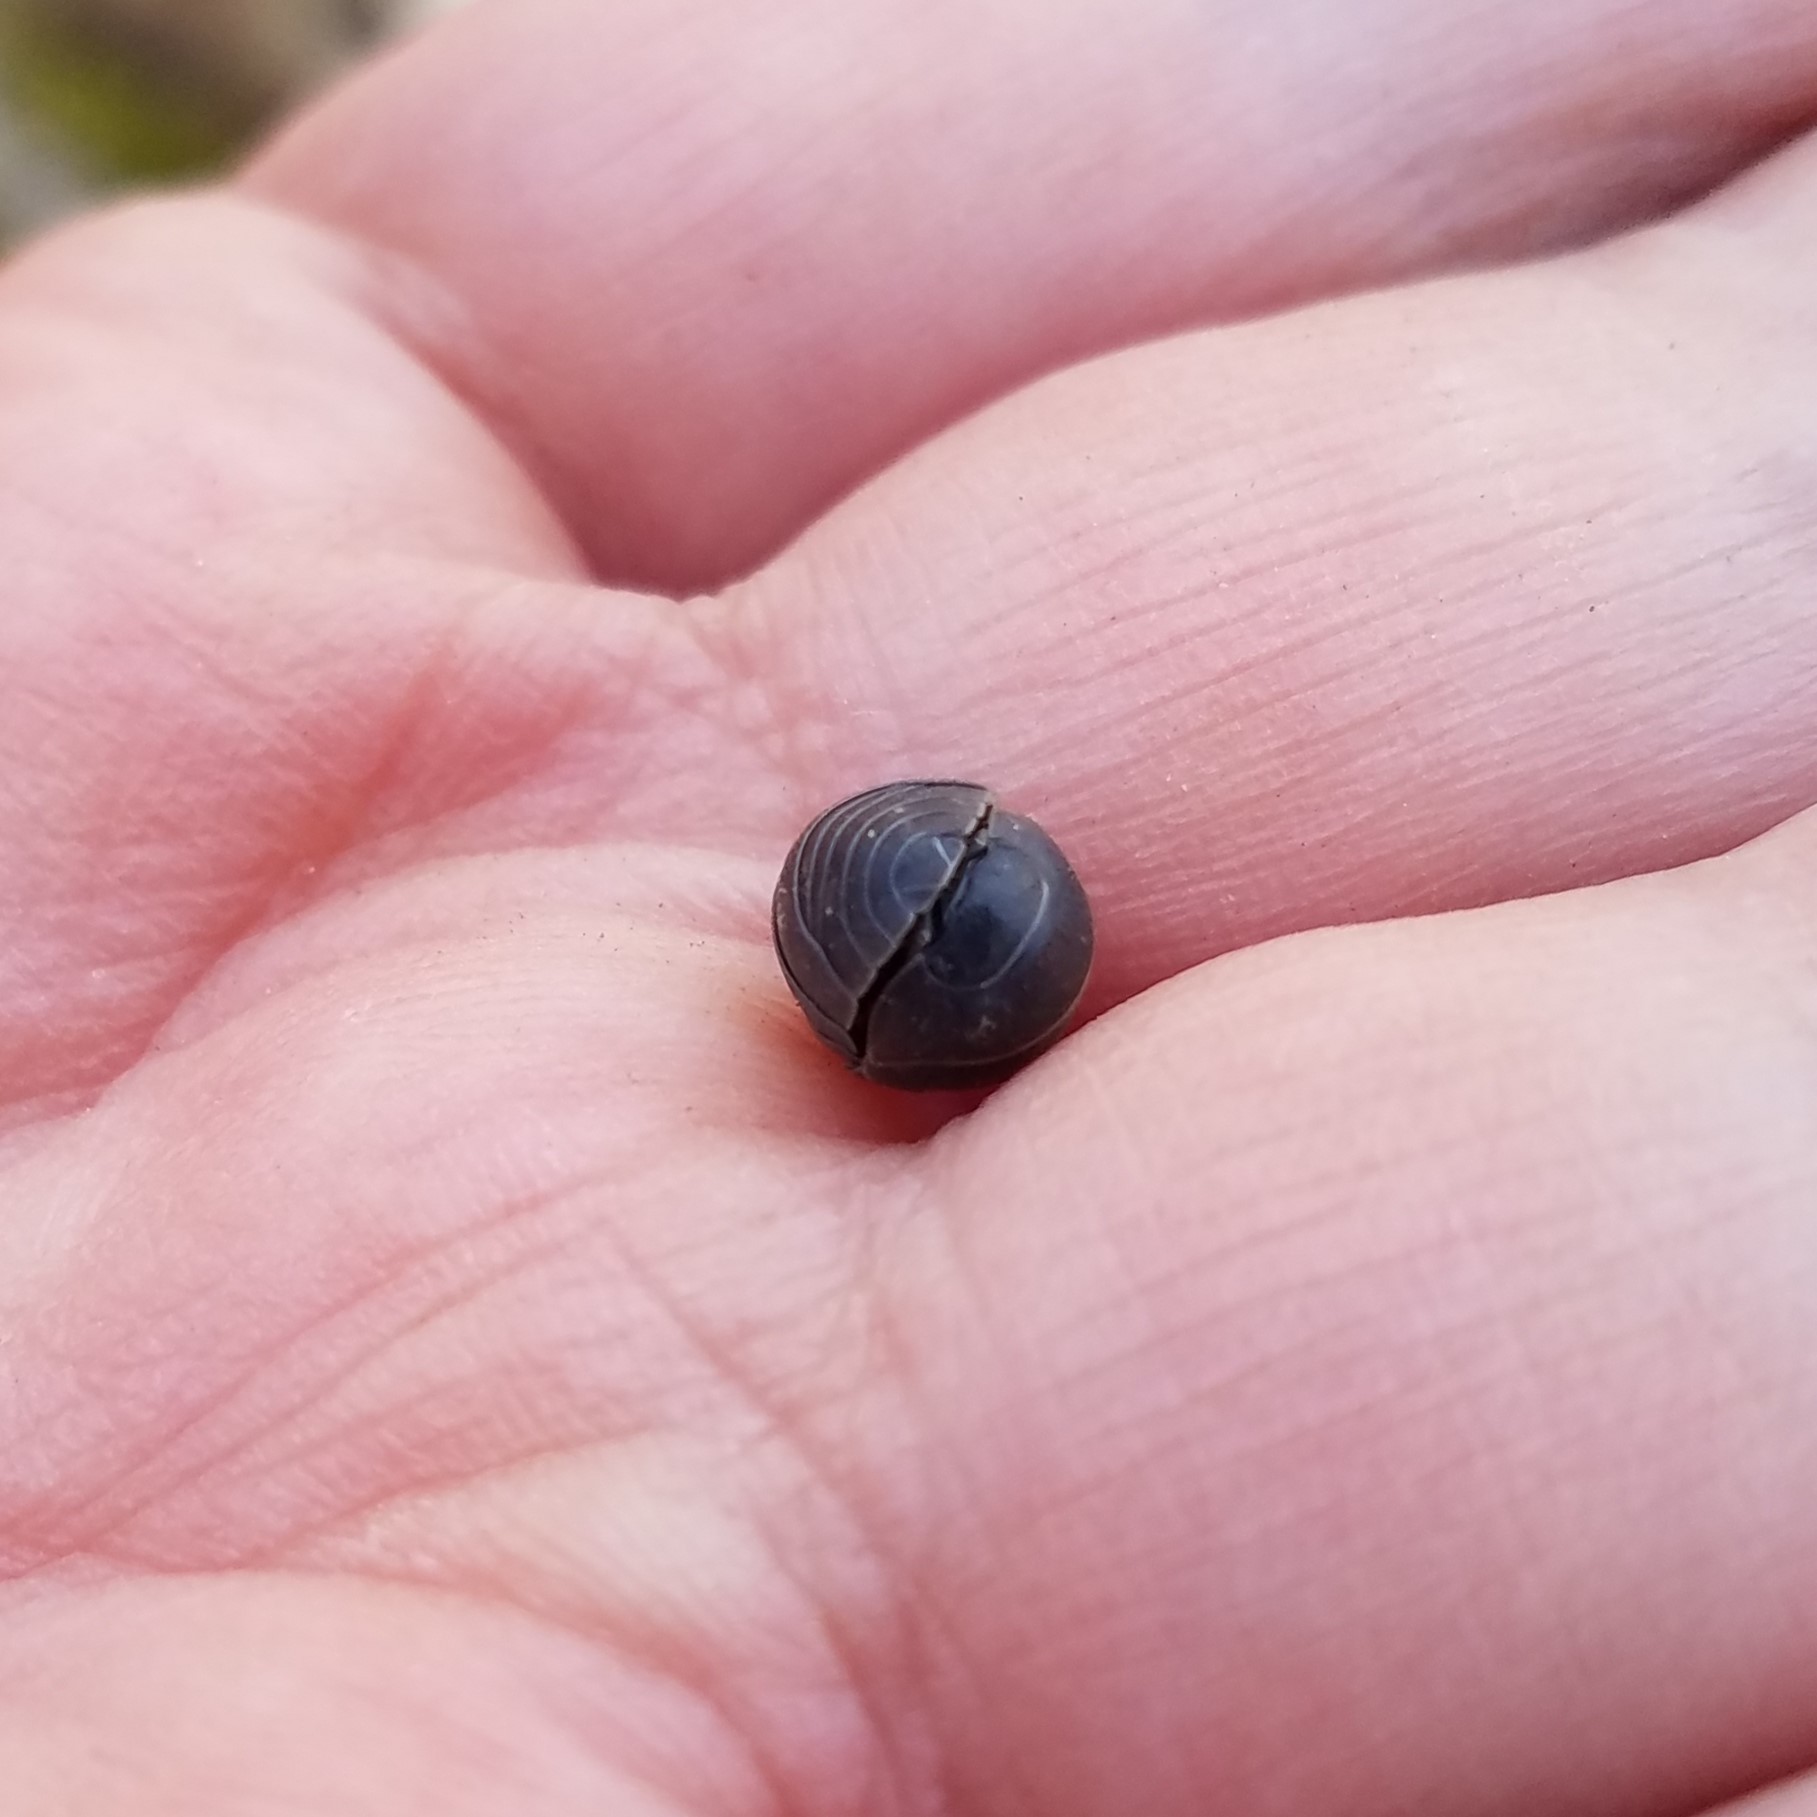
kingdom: Animalia
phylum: Arthropoda
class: Malacostraca
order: Isopoda
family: Armadillidiidae
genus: Armadillidium
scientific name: Armadillidium vulgare
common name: Common pill woodlouse
